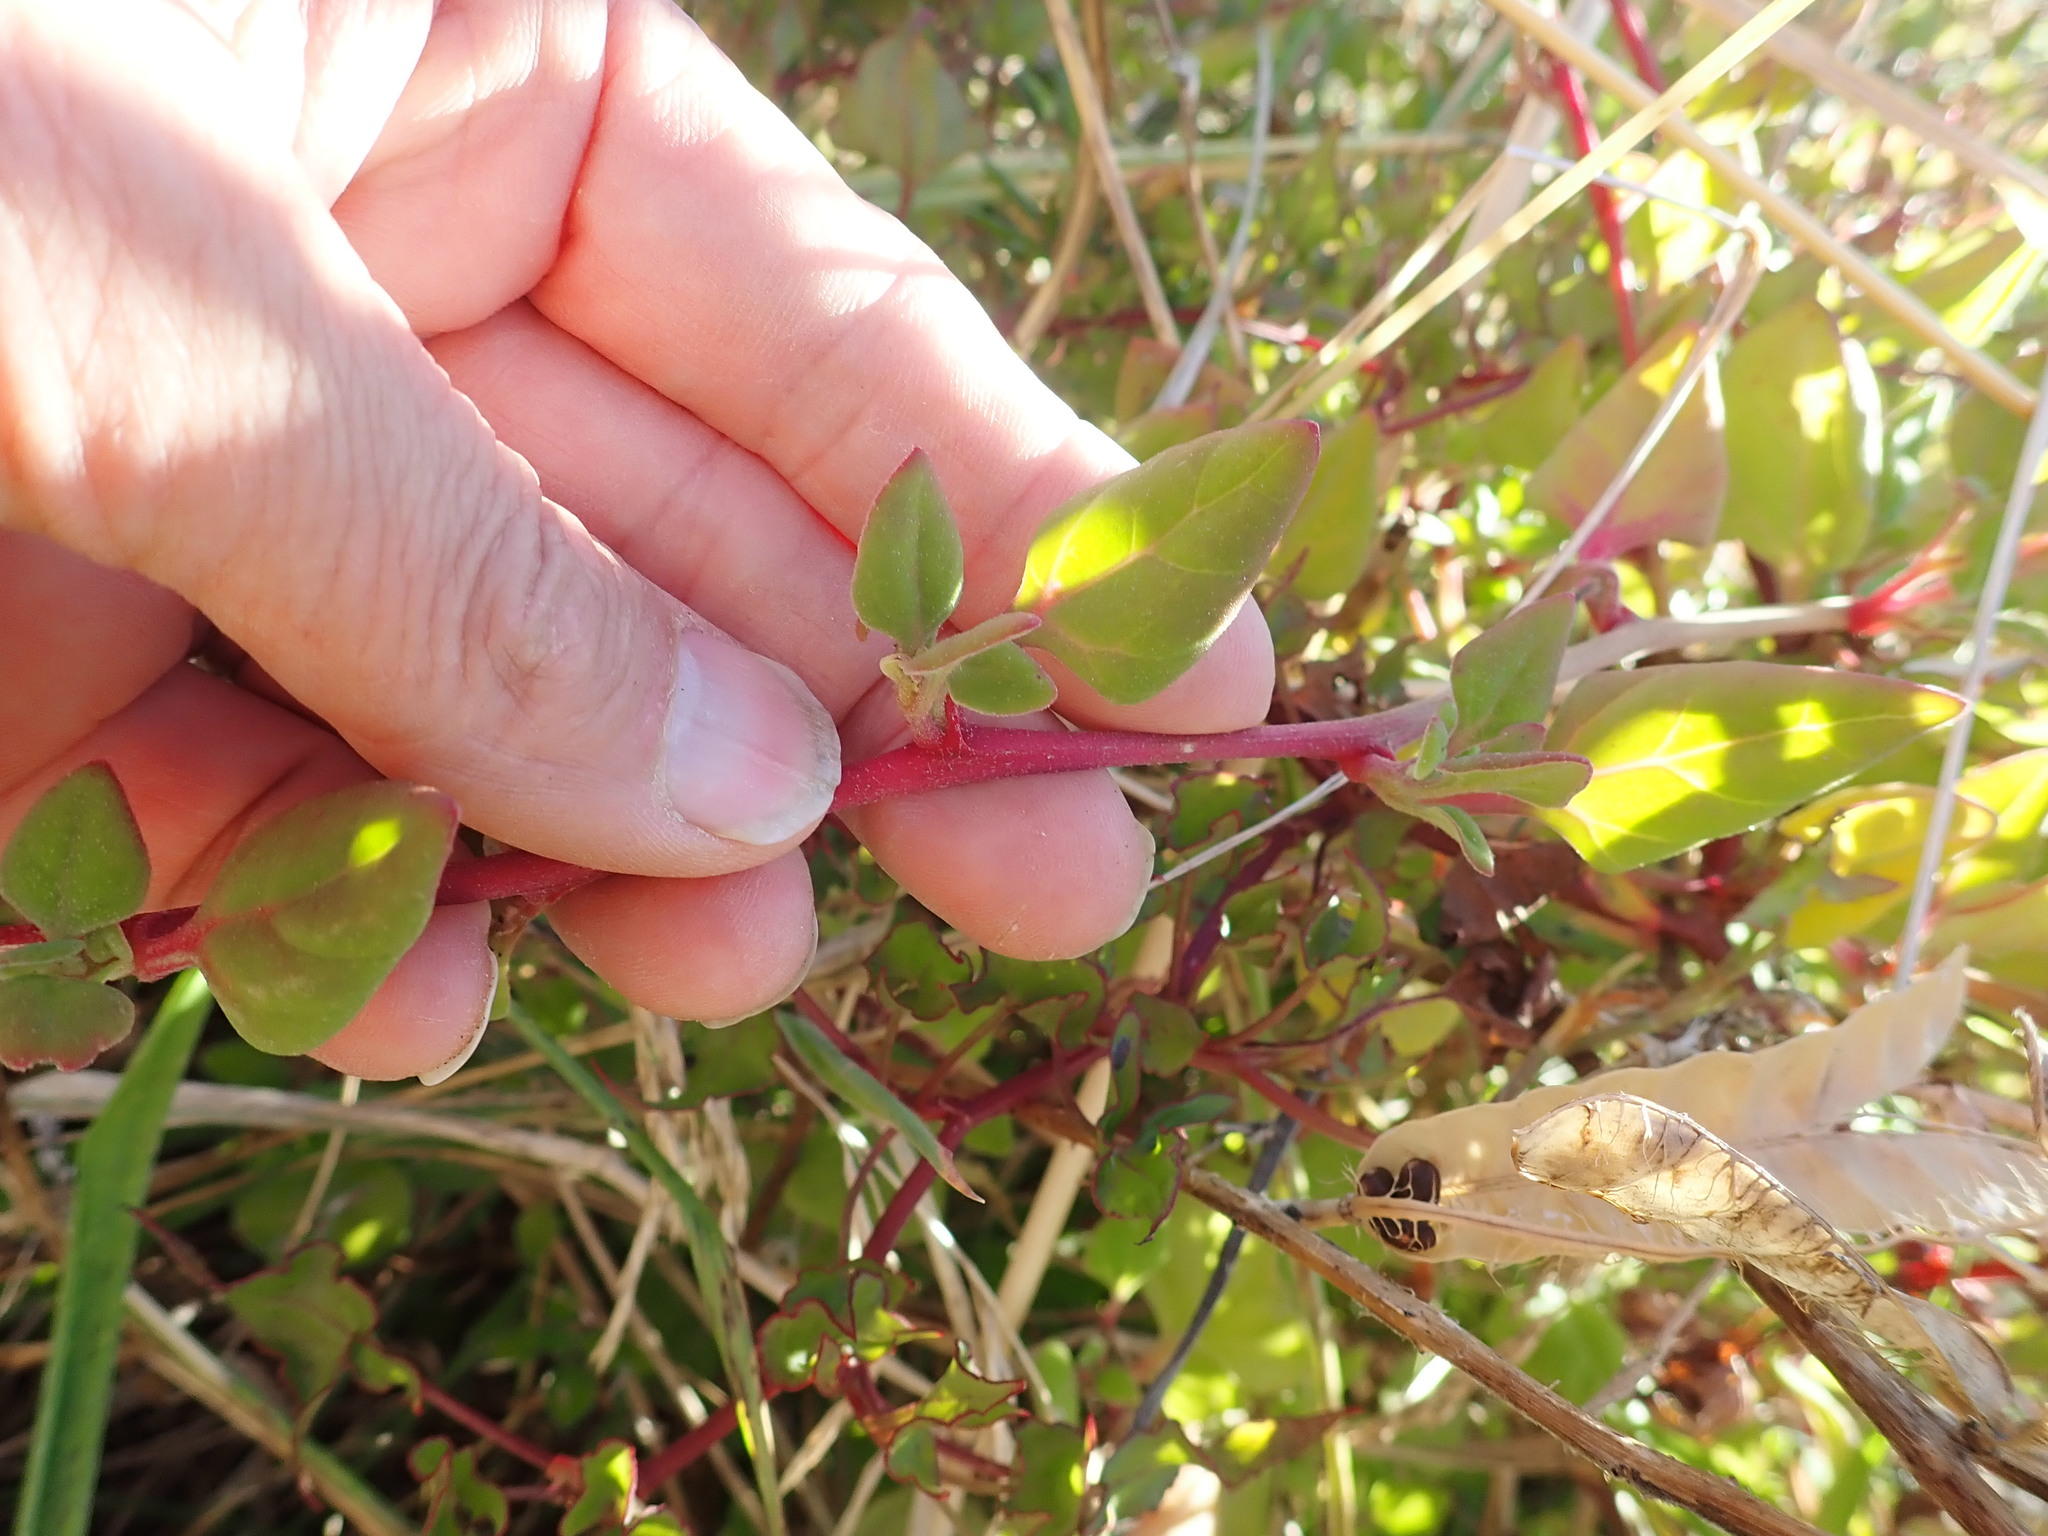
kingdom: Plantae
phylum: Tracheophyta
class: Magnoliopsida
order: Caryophyllales
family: Aizoaceae
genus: Tetragonia
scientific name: Tetragonia implexicoma
